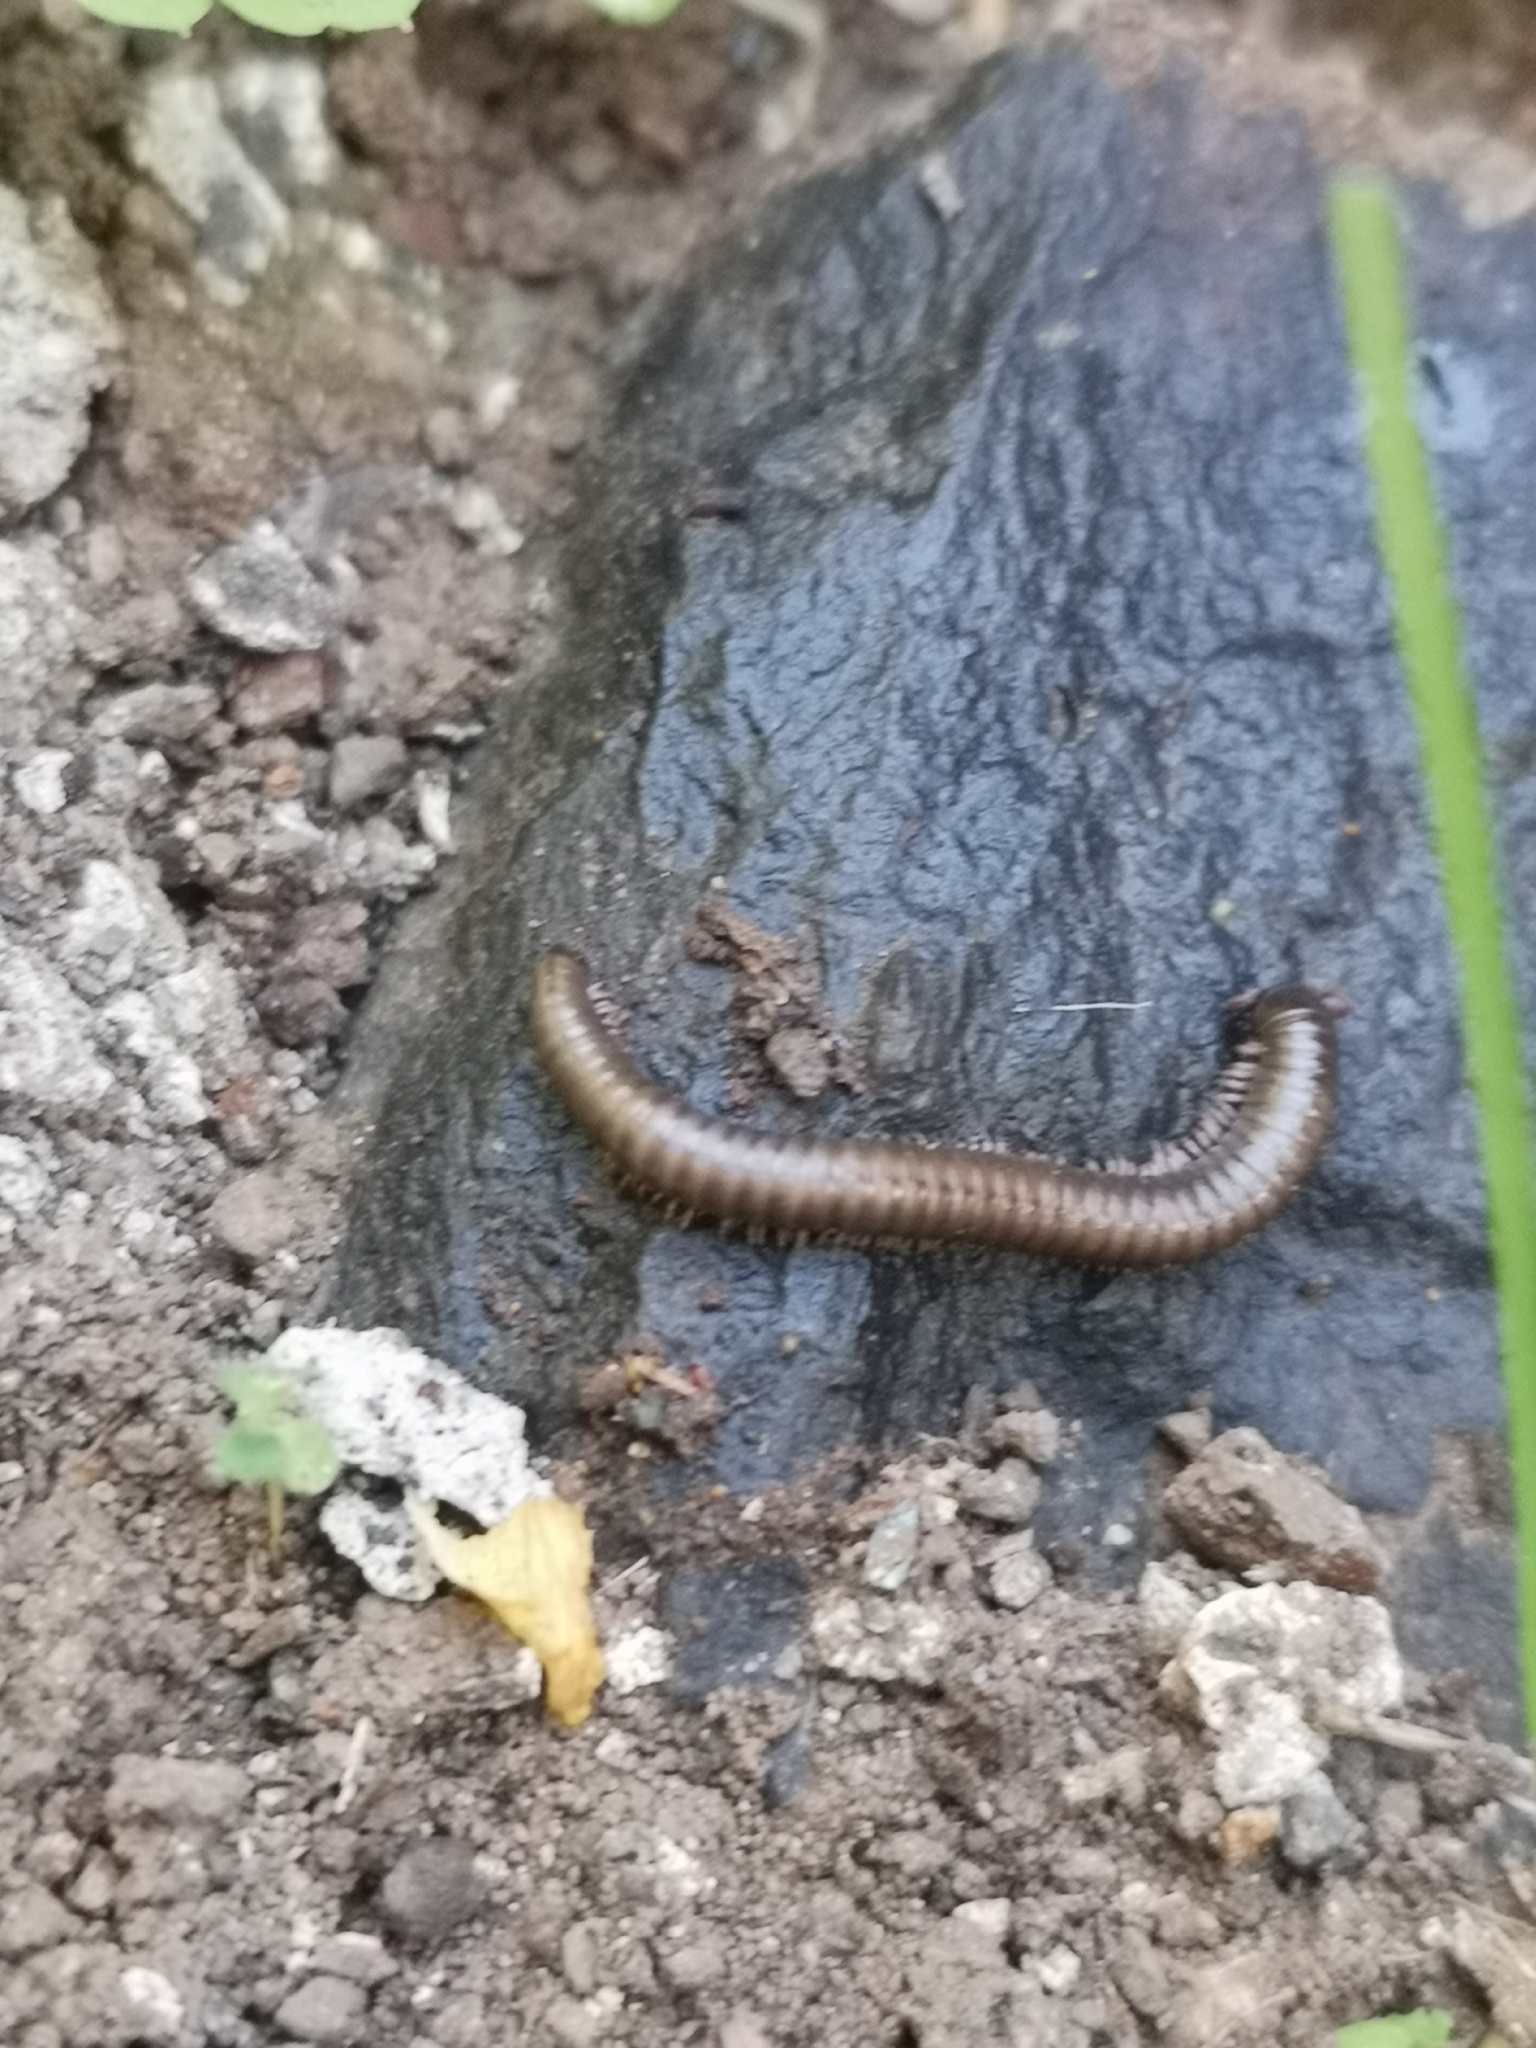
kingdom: Animalia
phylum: Arthropoda
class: Diplopoda
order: Julida
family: Julidae
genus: Ommatoiulus
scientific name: Ommatoiulus moreleti
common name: Portuguese millipede
